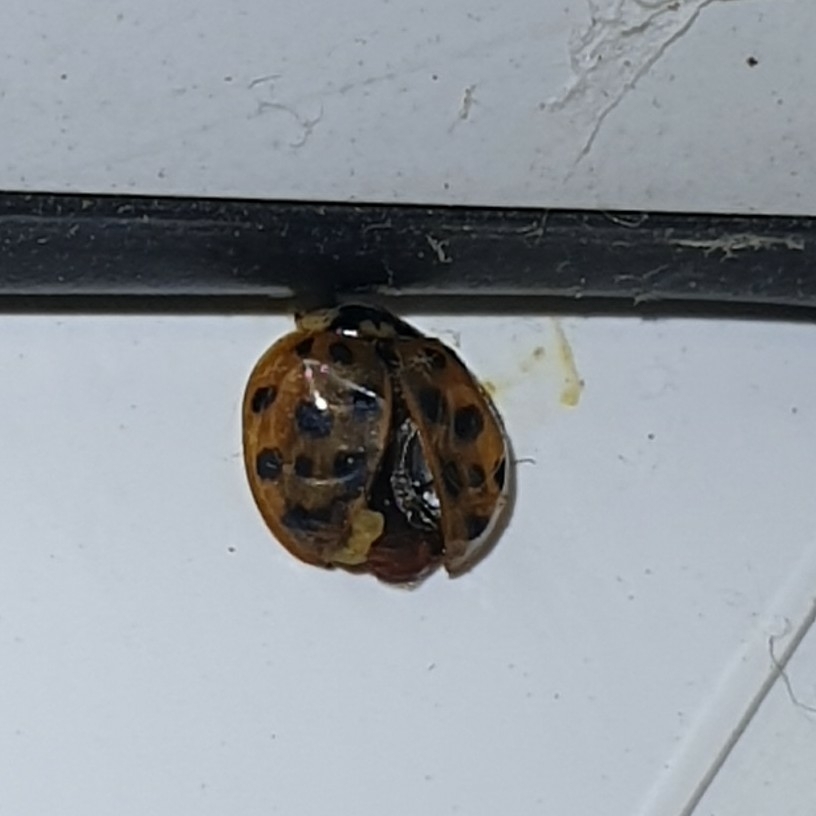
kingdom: Animalia
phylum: Arthropoda
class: Insecta
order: Coleoptera
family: Coccinellidae
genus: Harmonia
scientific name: Harmonia axyridis
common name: Harlequin ladybird
